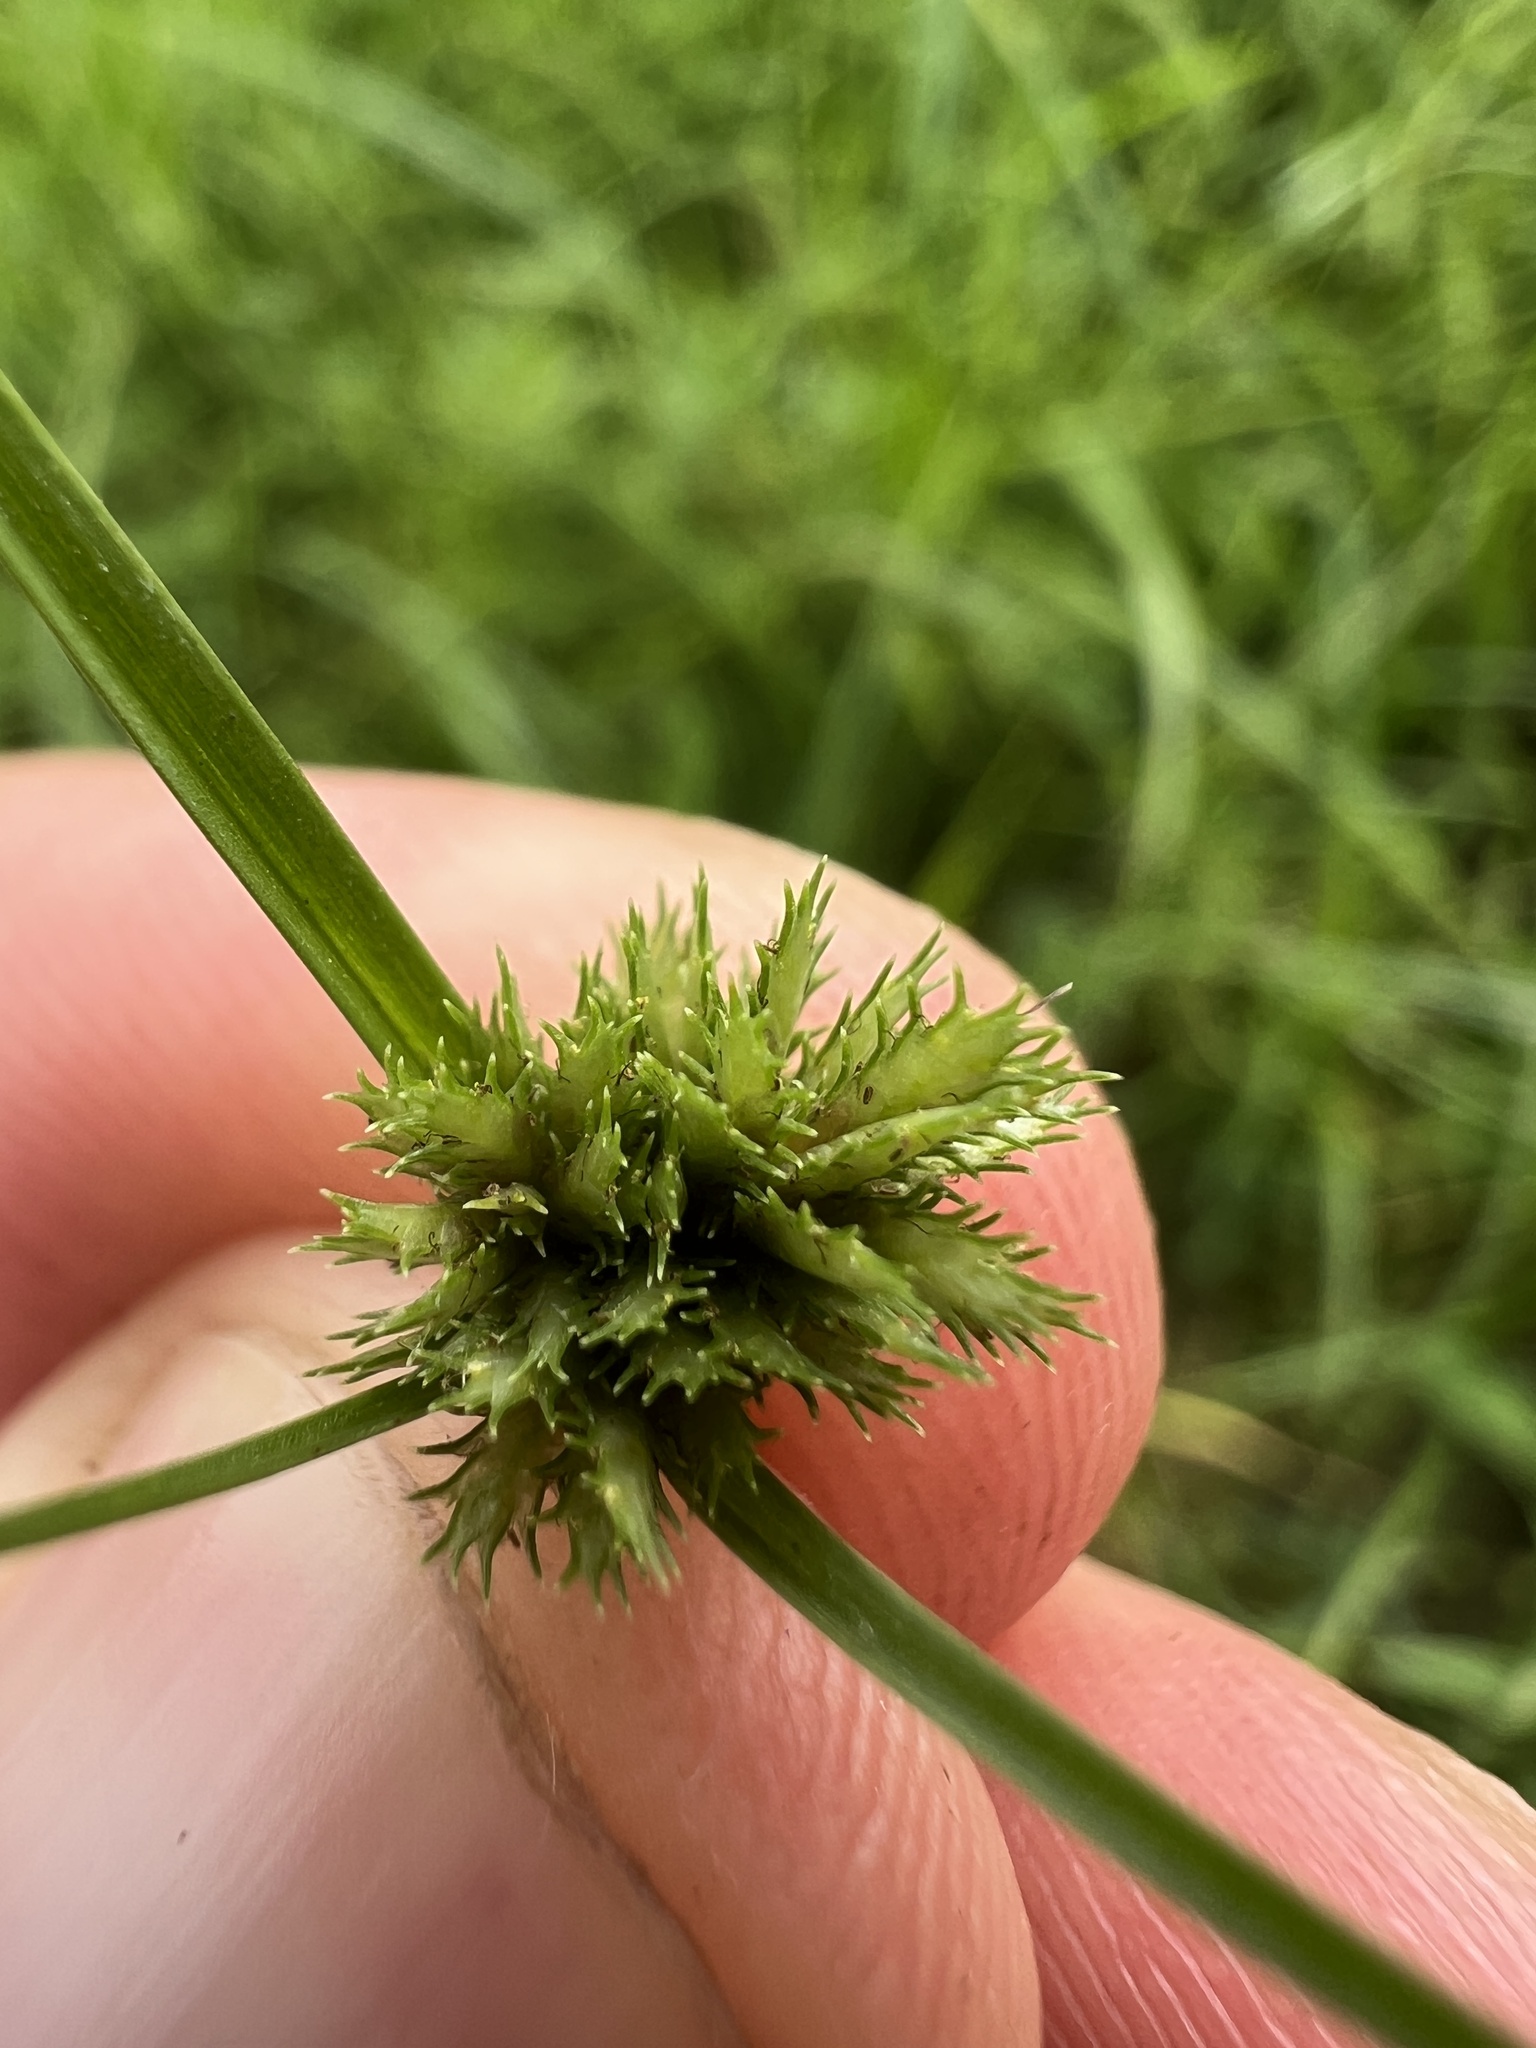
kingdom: Plantae
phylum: Tracheophyta
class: Liliopsida
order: Poales
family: Cyperaceae
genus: Cyperus
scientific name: Cyperus squarrosus
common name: Awned cyperus
